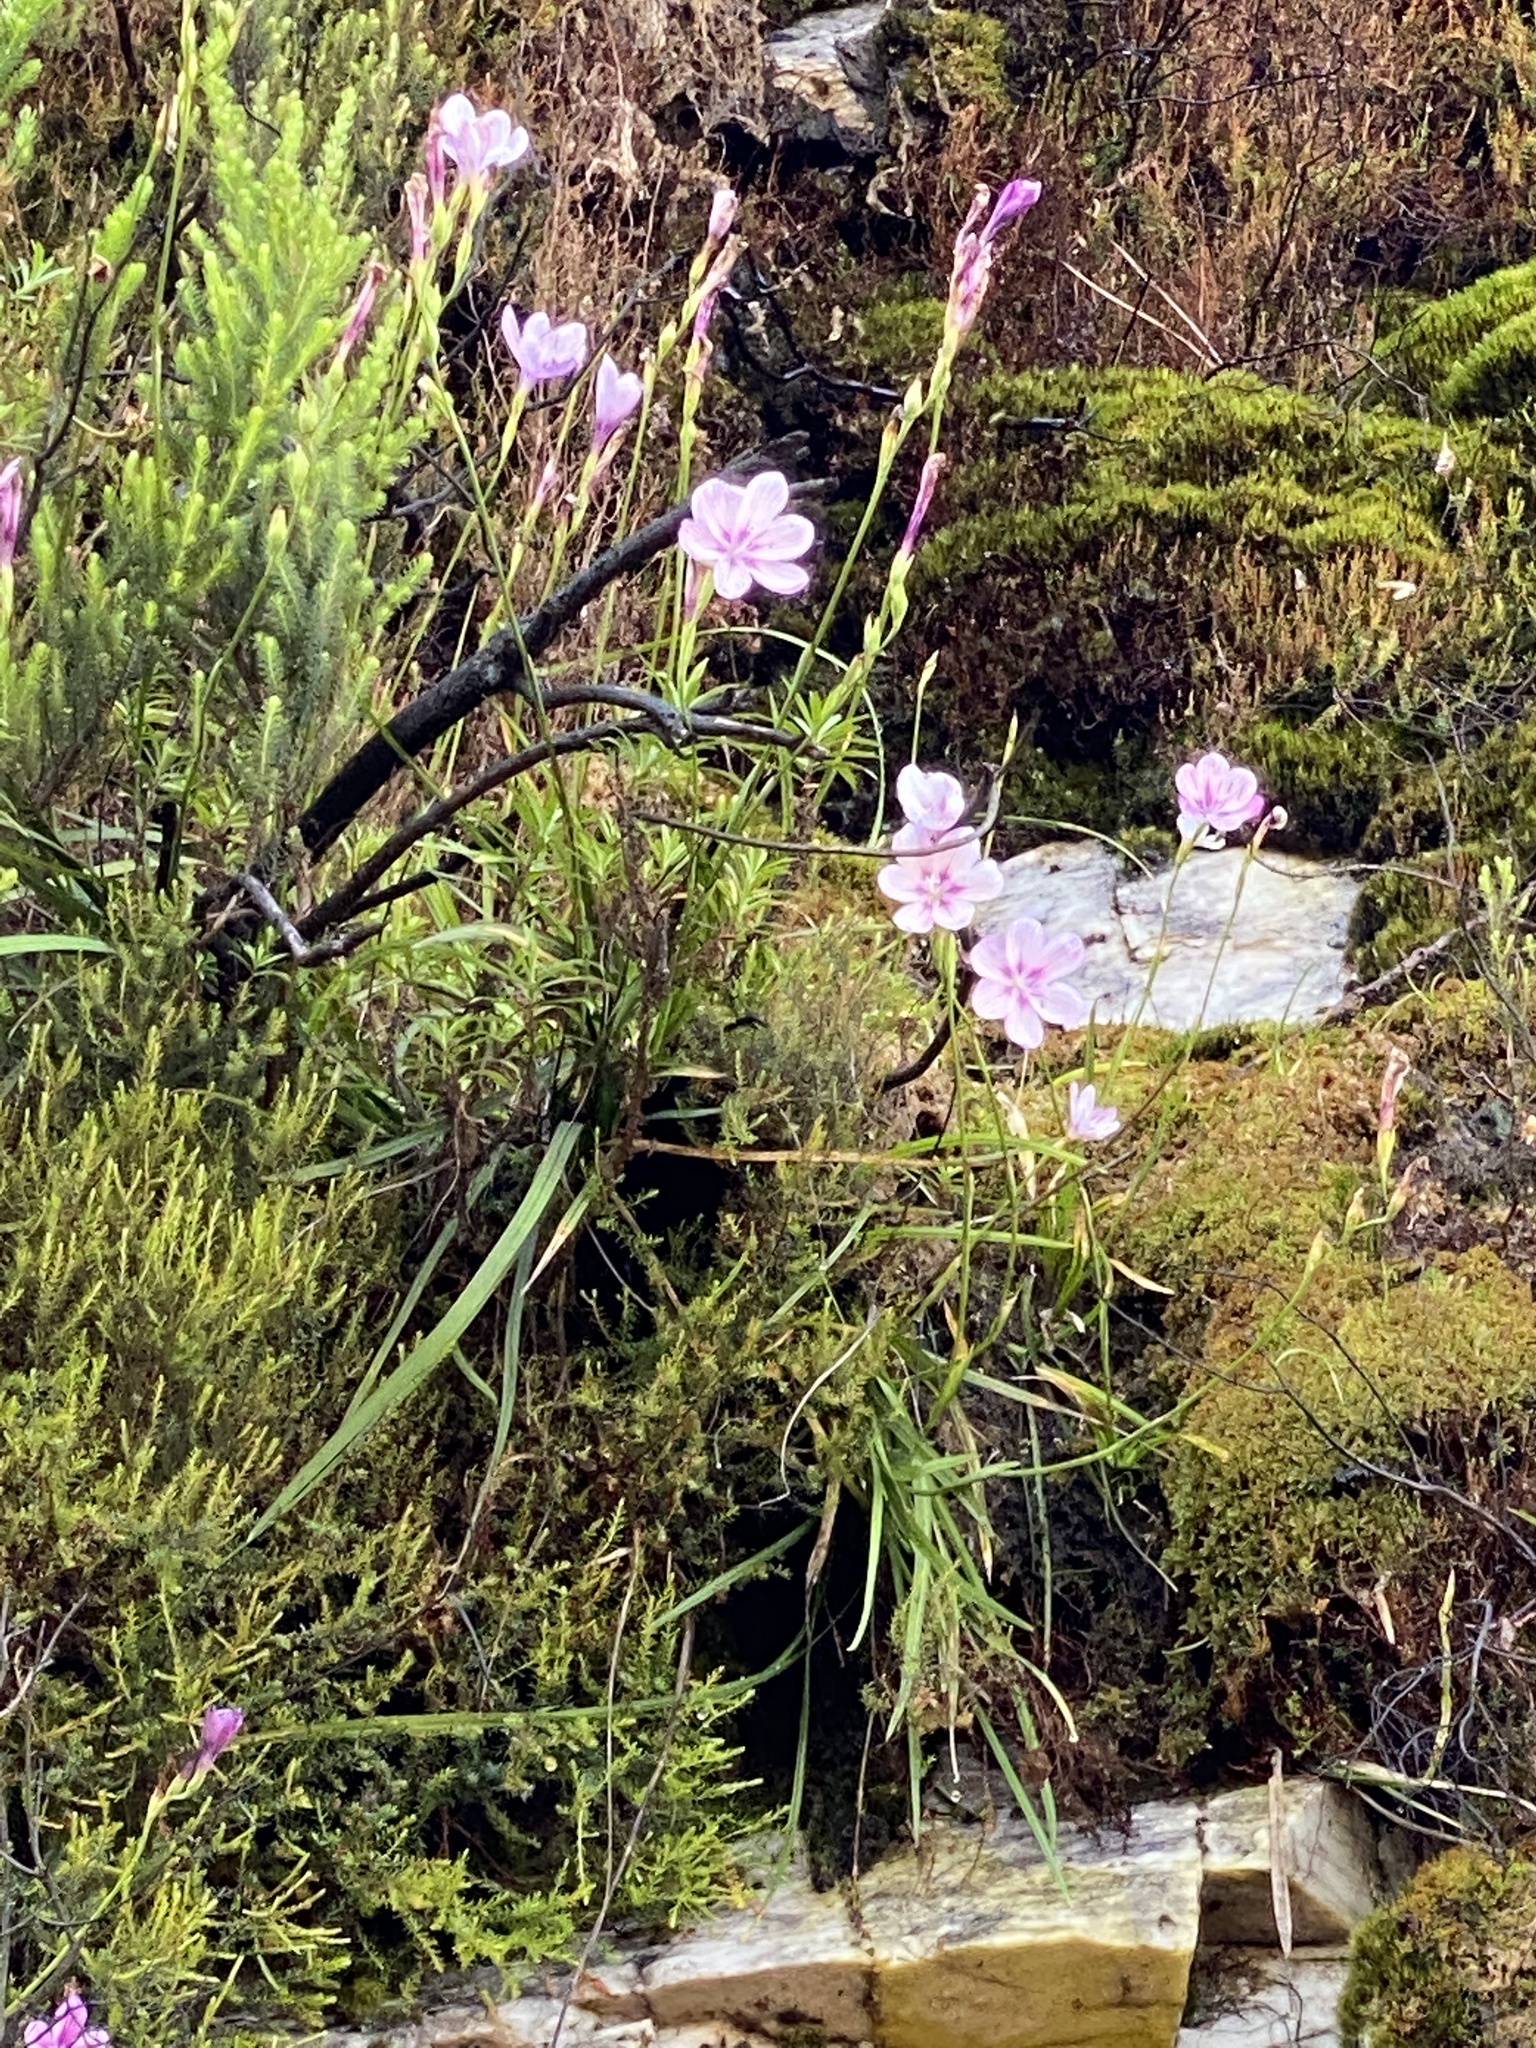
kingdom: Plantae
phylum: Tracheophyta
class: Liliopsida
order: Asparagales
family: Iridaceae
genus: Geissorhiza
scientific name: Geissorhiza outeniquensis
